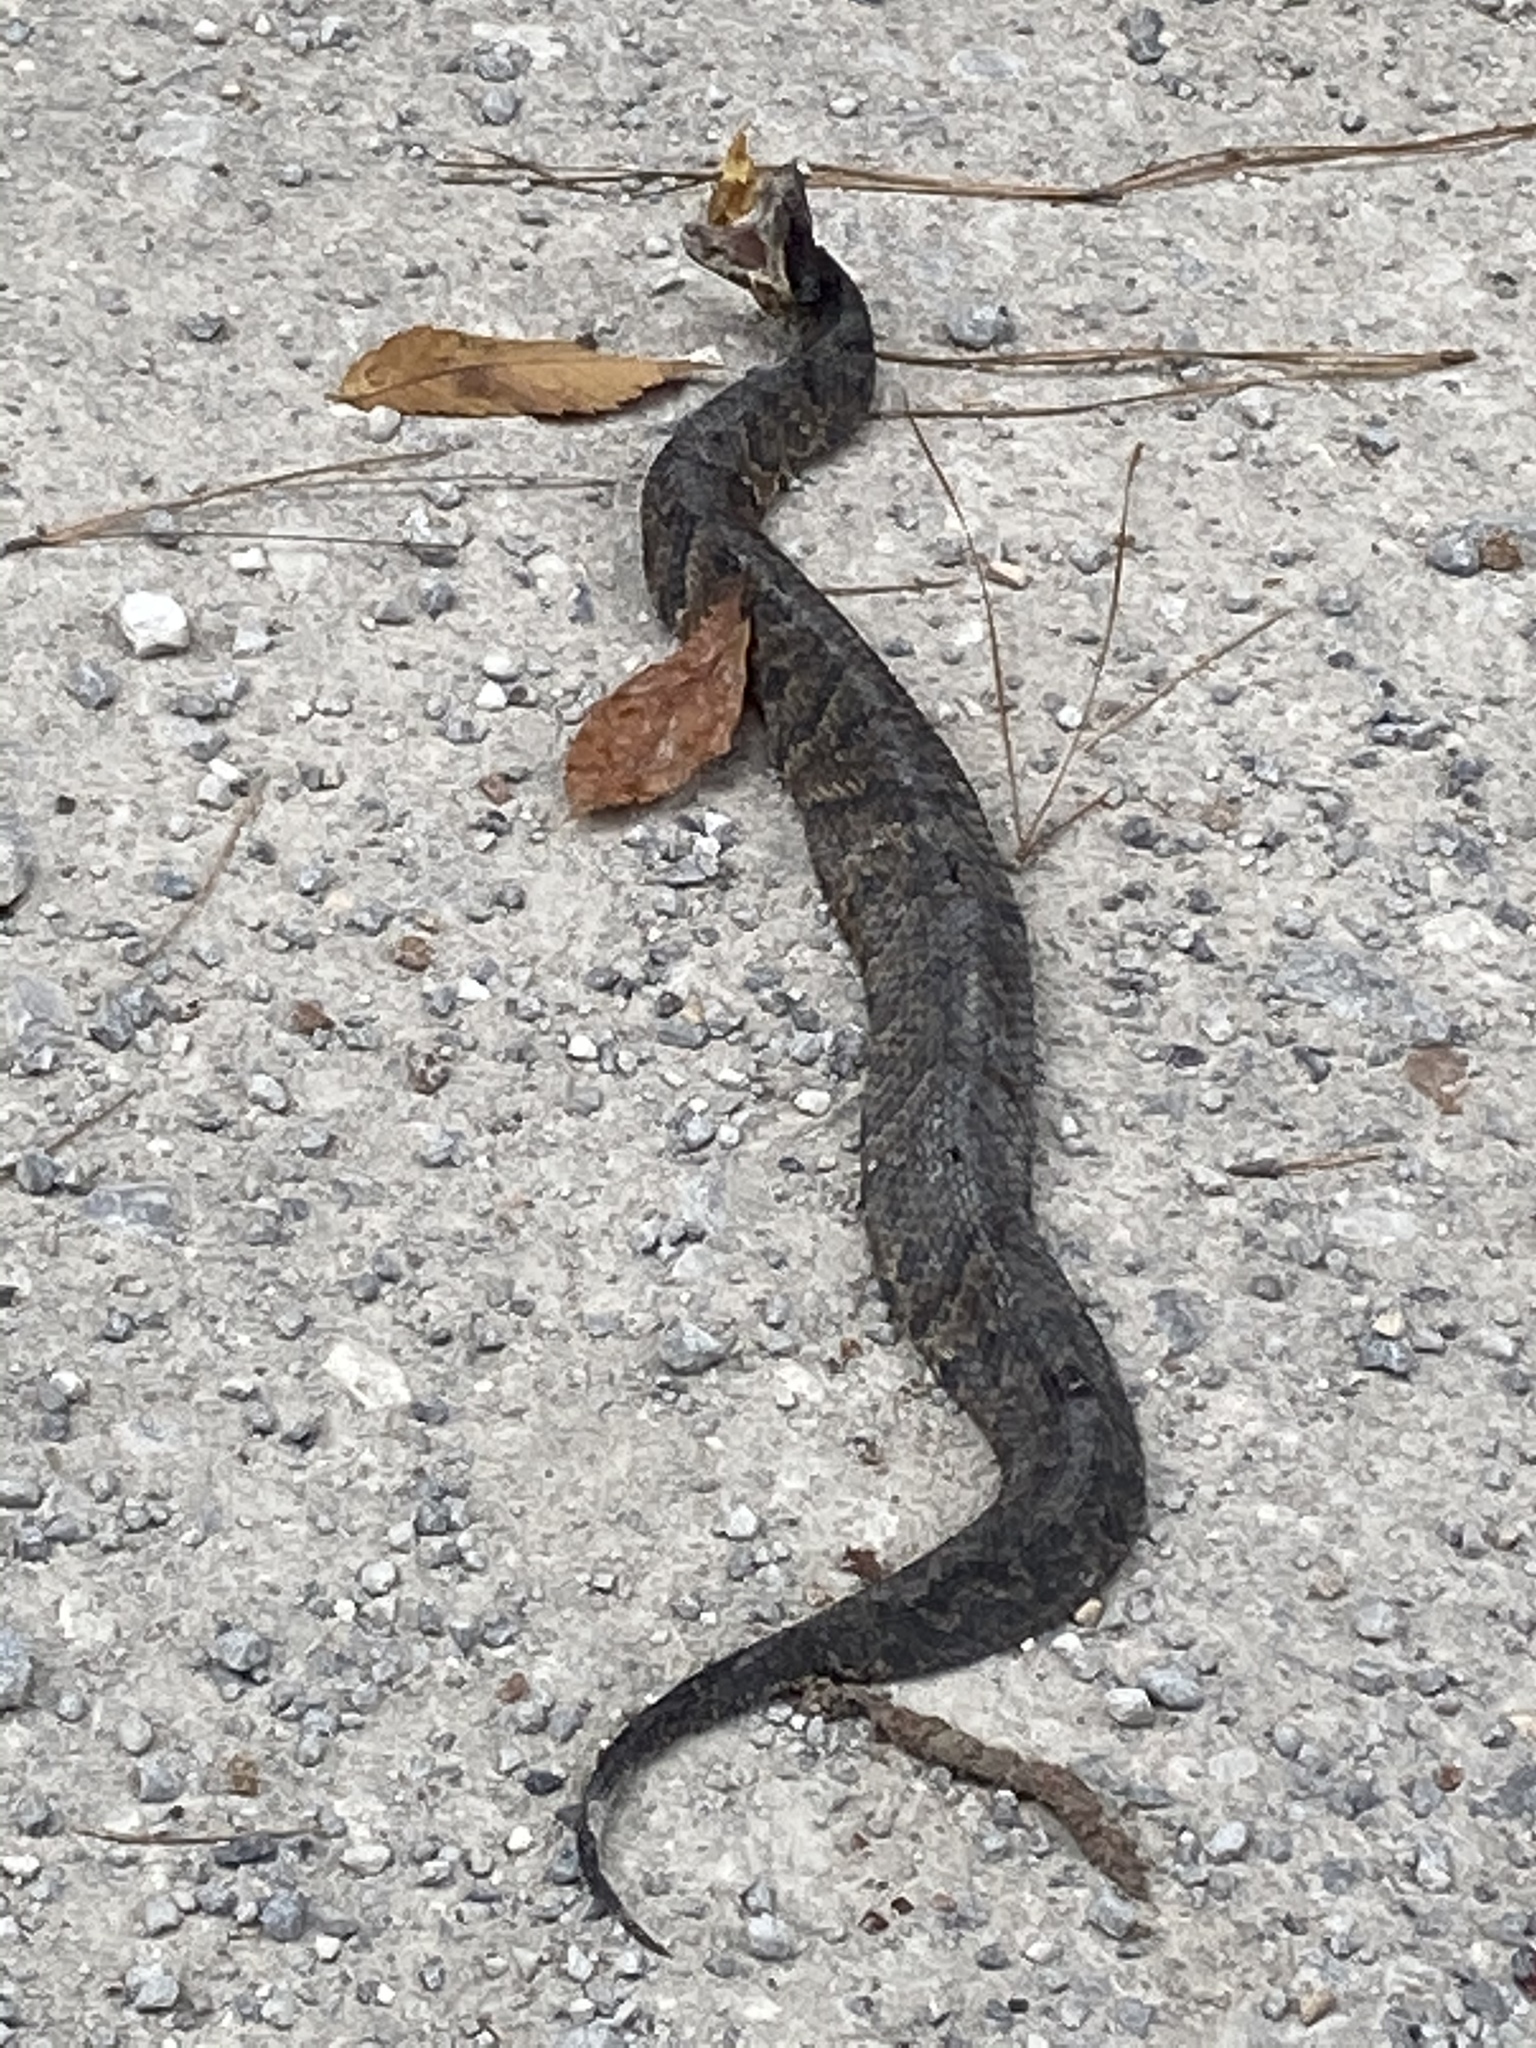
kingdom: Animalia
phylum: Chordata
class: Squamata
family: Viperidae
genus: Agkistrodon
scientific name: Agkistrodon piscivorus
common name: Cottonmouth
